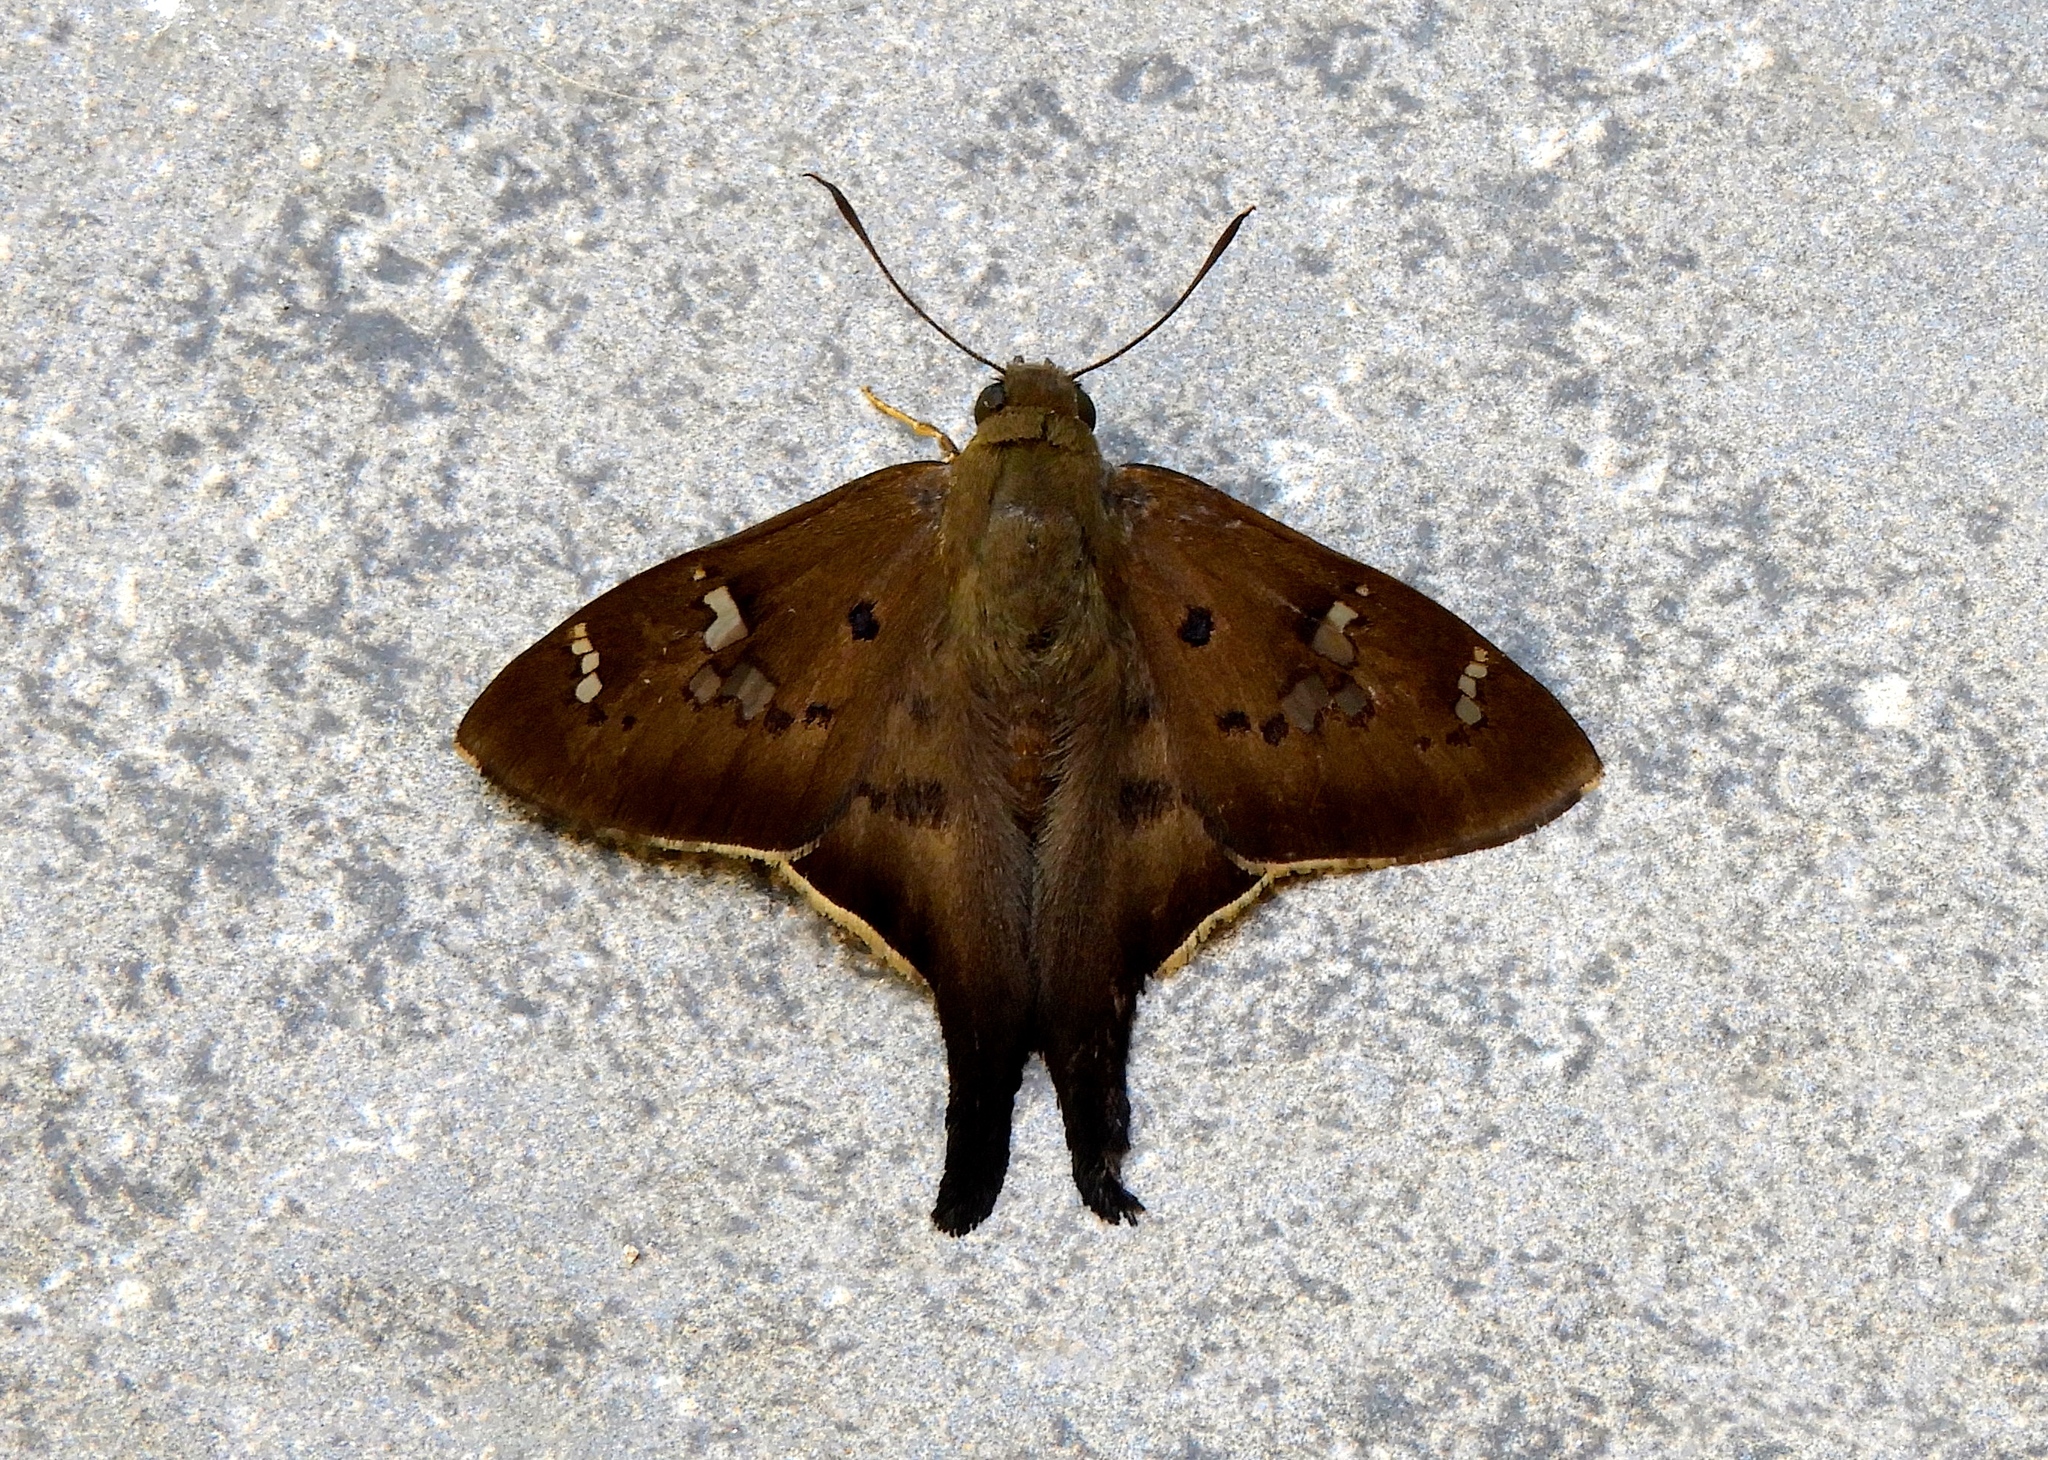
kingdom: Animalia
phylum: Arthropoda
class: Insecta
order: Lepidoptera
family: Hesperiidae
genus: Ectomis
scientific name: Ectomis
